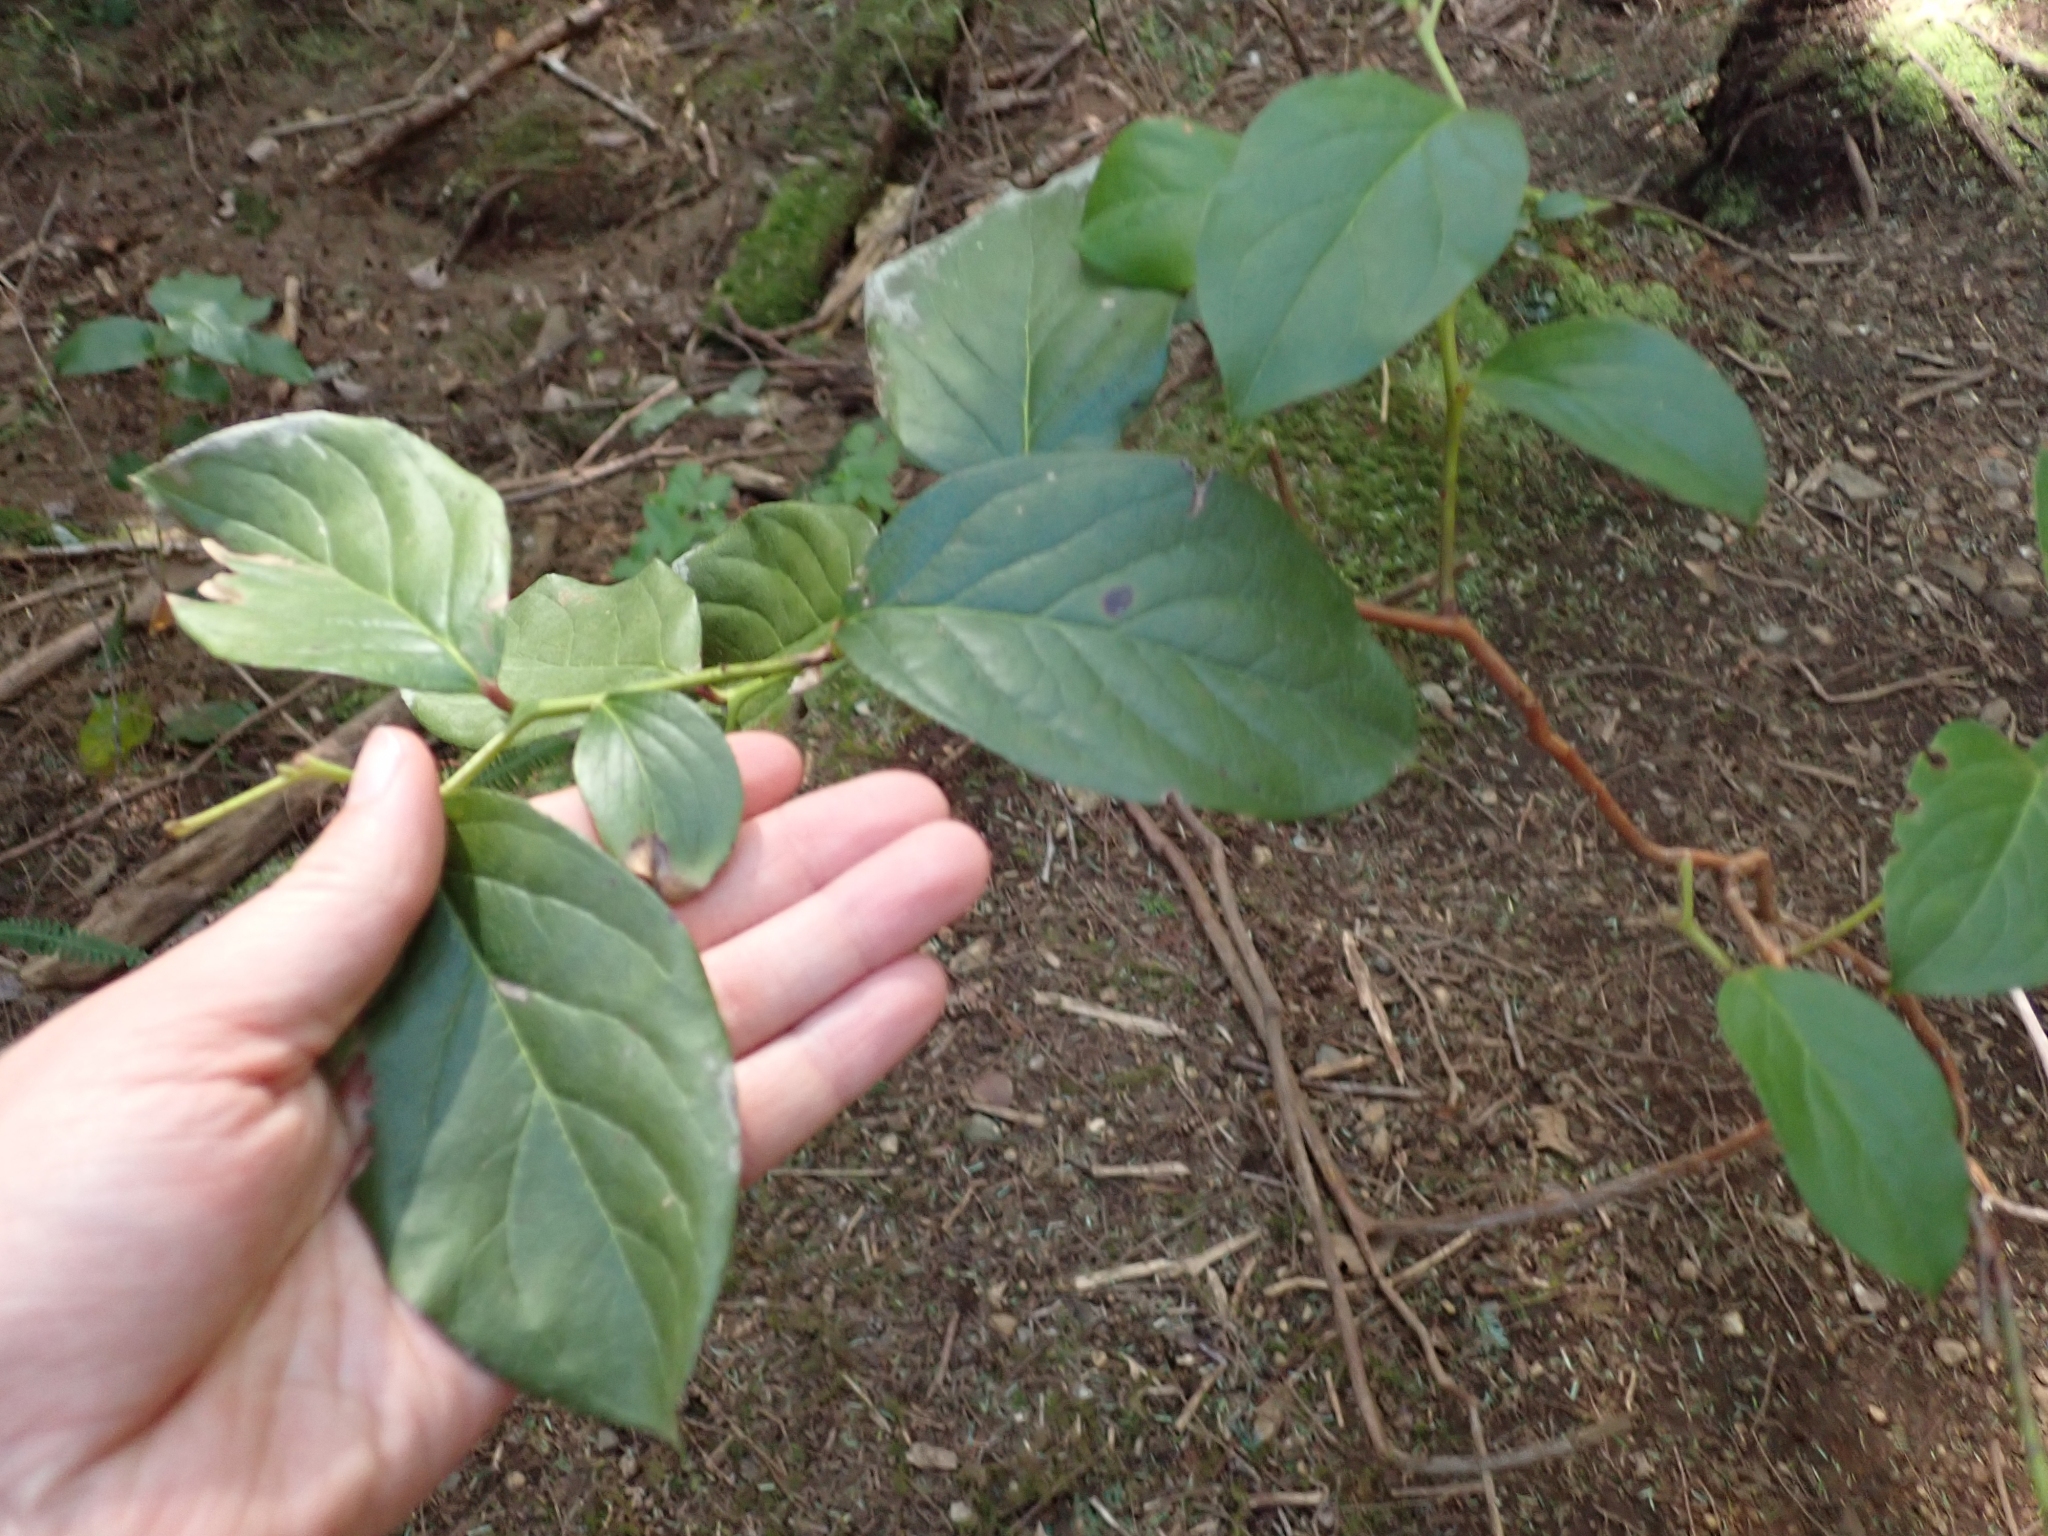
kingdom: Plantae
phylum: Tracheophyta
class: Magnoliopsida
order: Ericales
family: Ericaceae
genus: Gaultheria
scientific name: Gaultheria shallon
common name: Shallon
